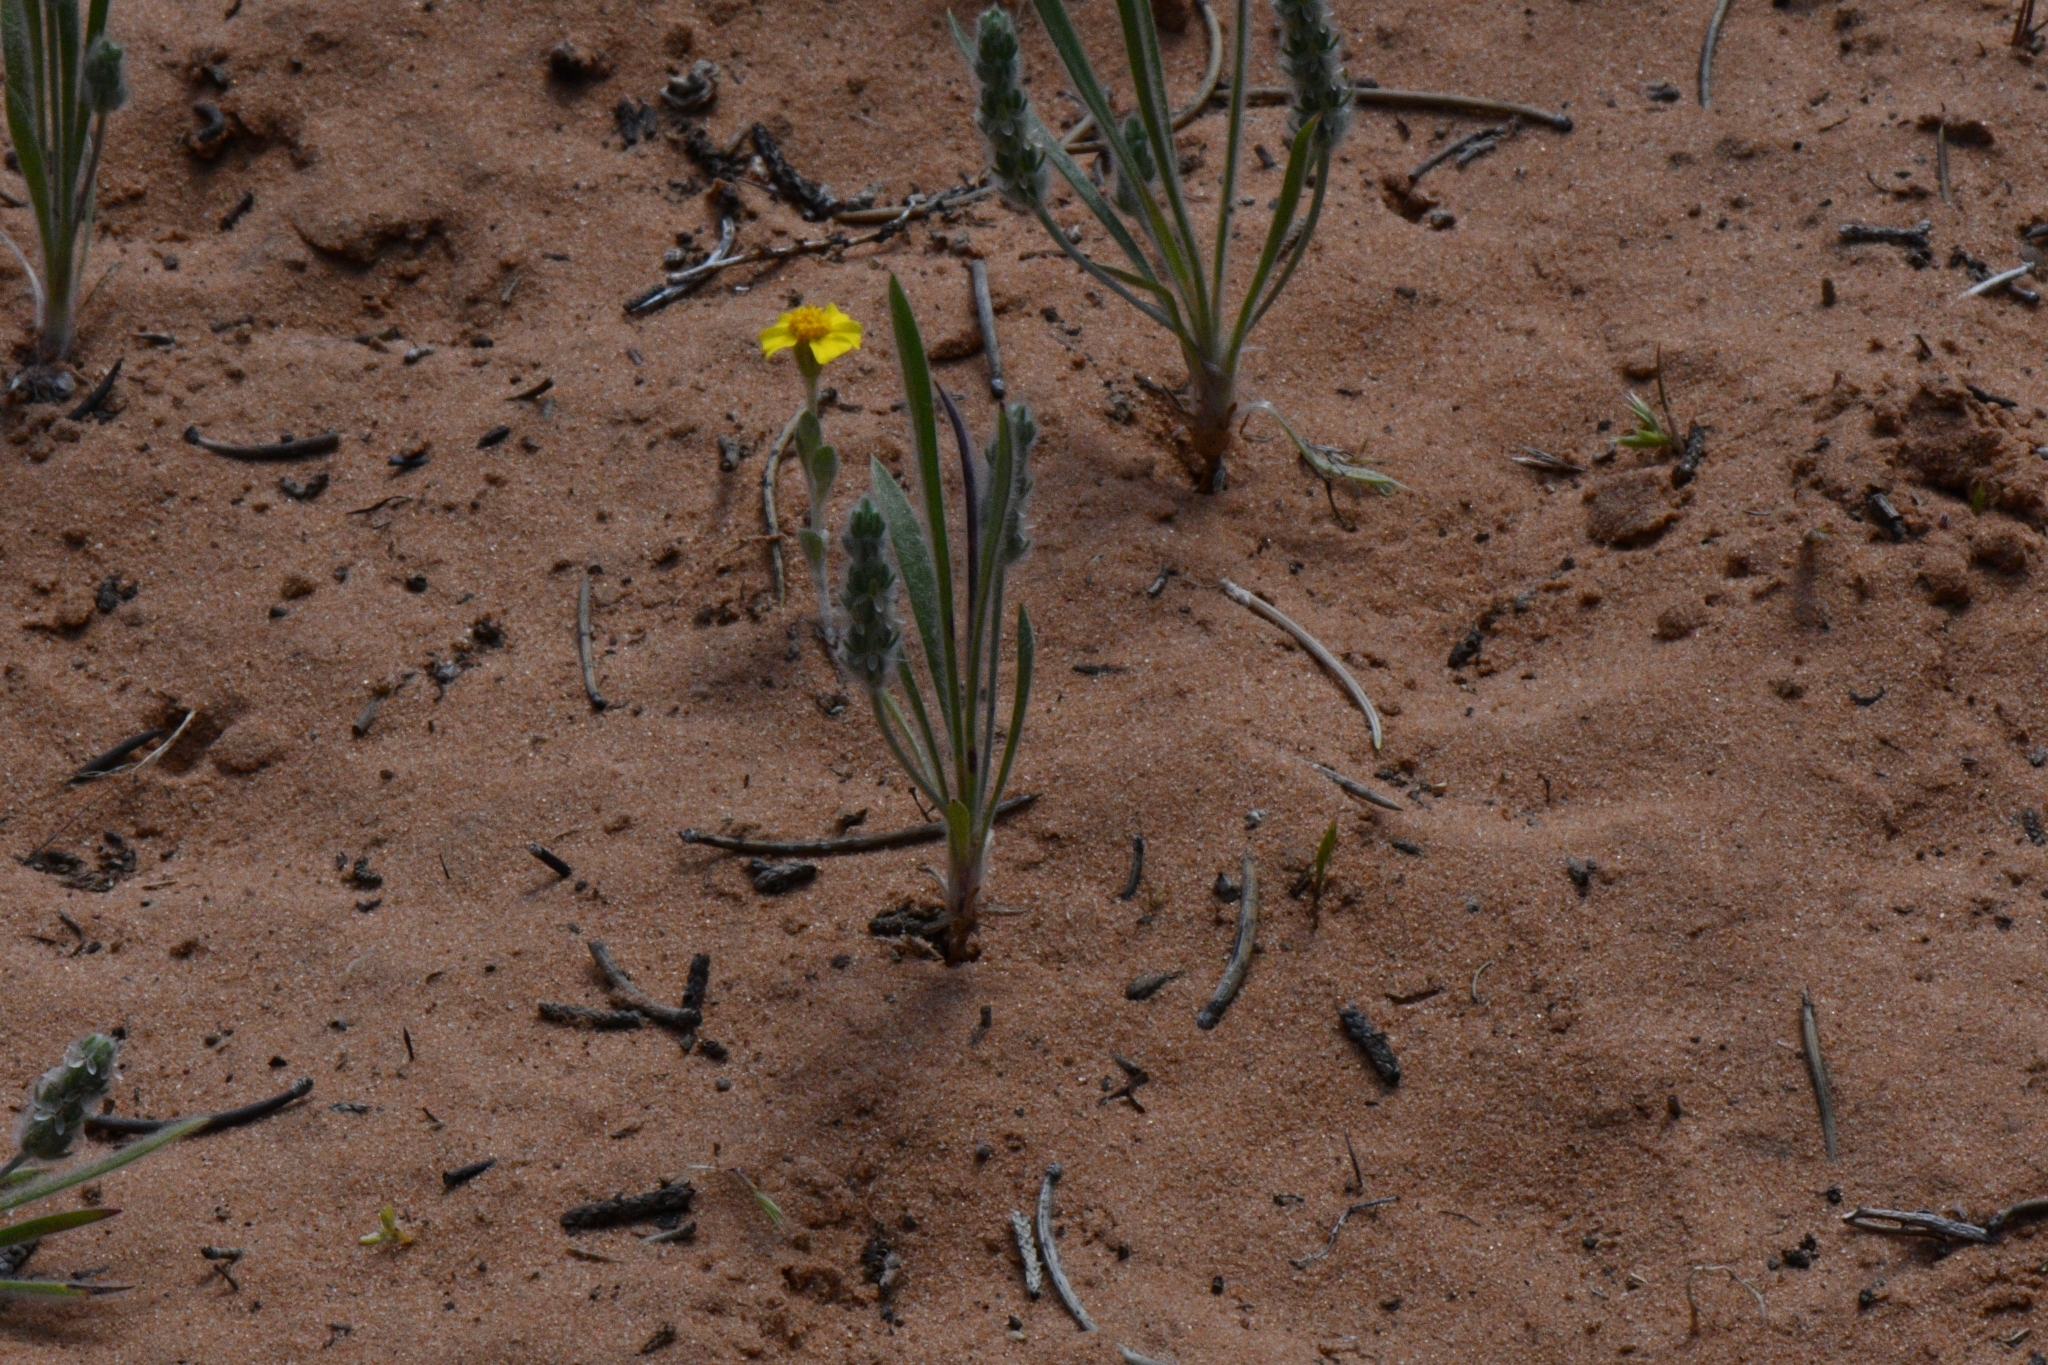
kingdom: Plantae
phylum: Tracheophyta
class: Magnoliopsida
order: Lamiales
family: Plantaginaceae
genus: Plantago
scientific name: Plantago patagonica
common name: Patagonia indian-wheat
